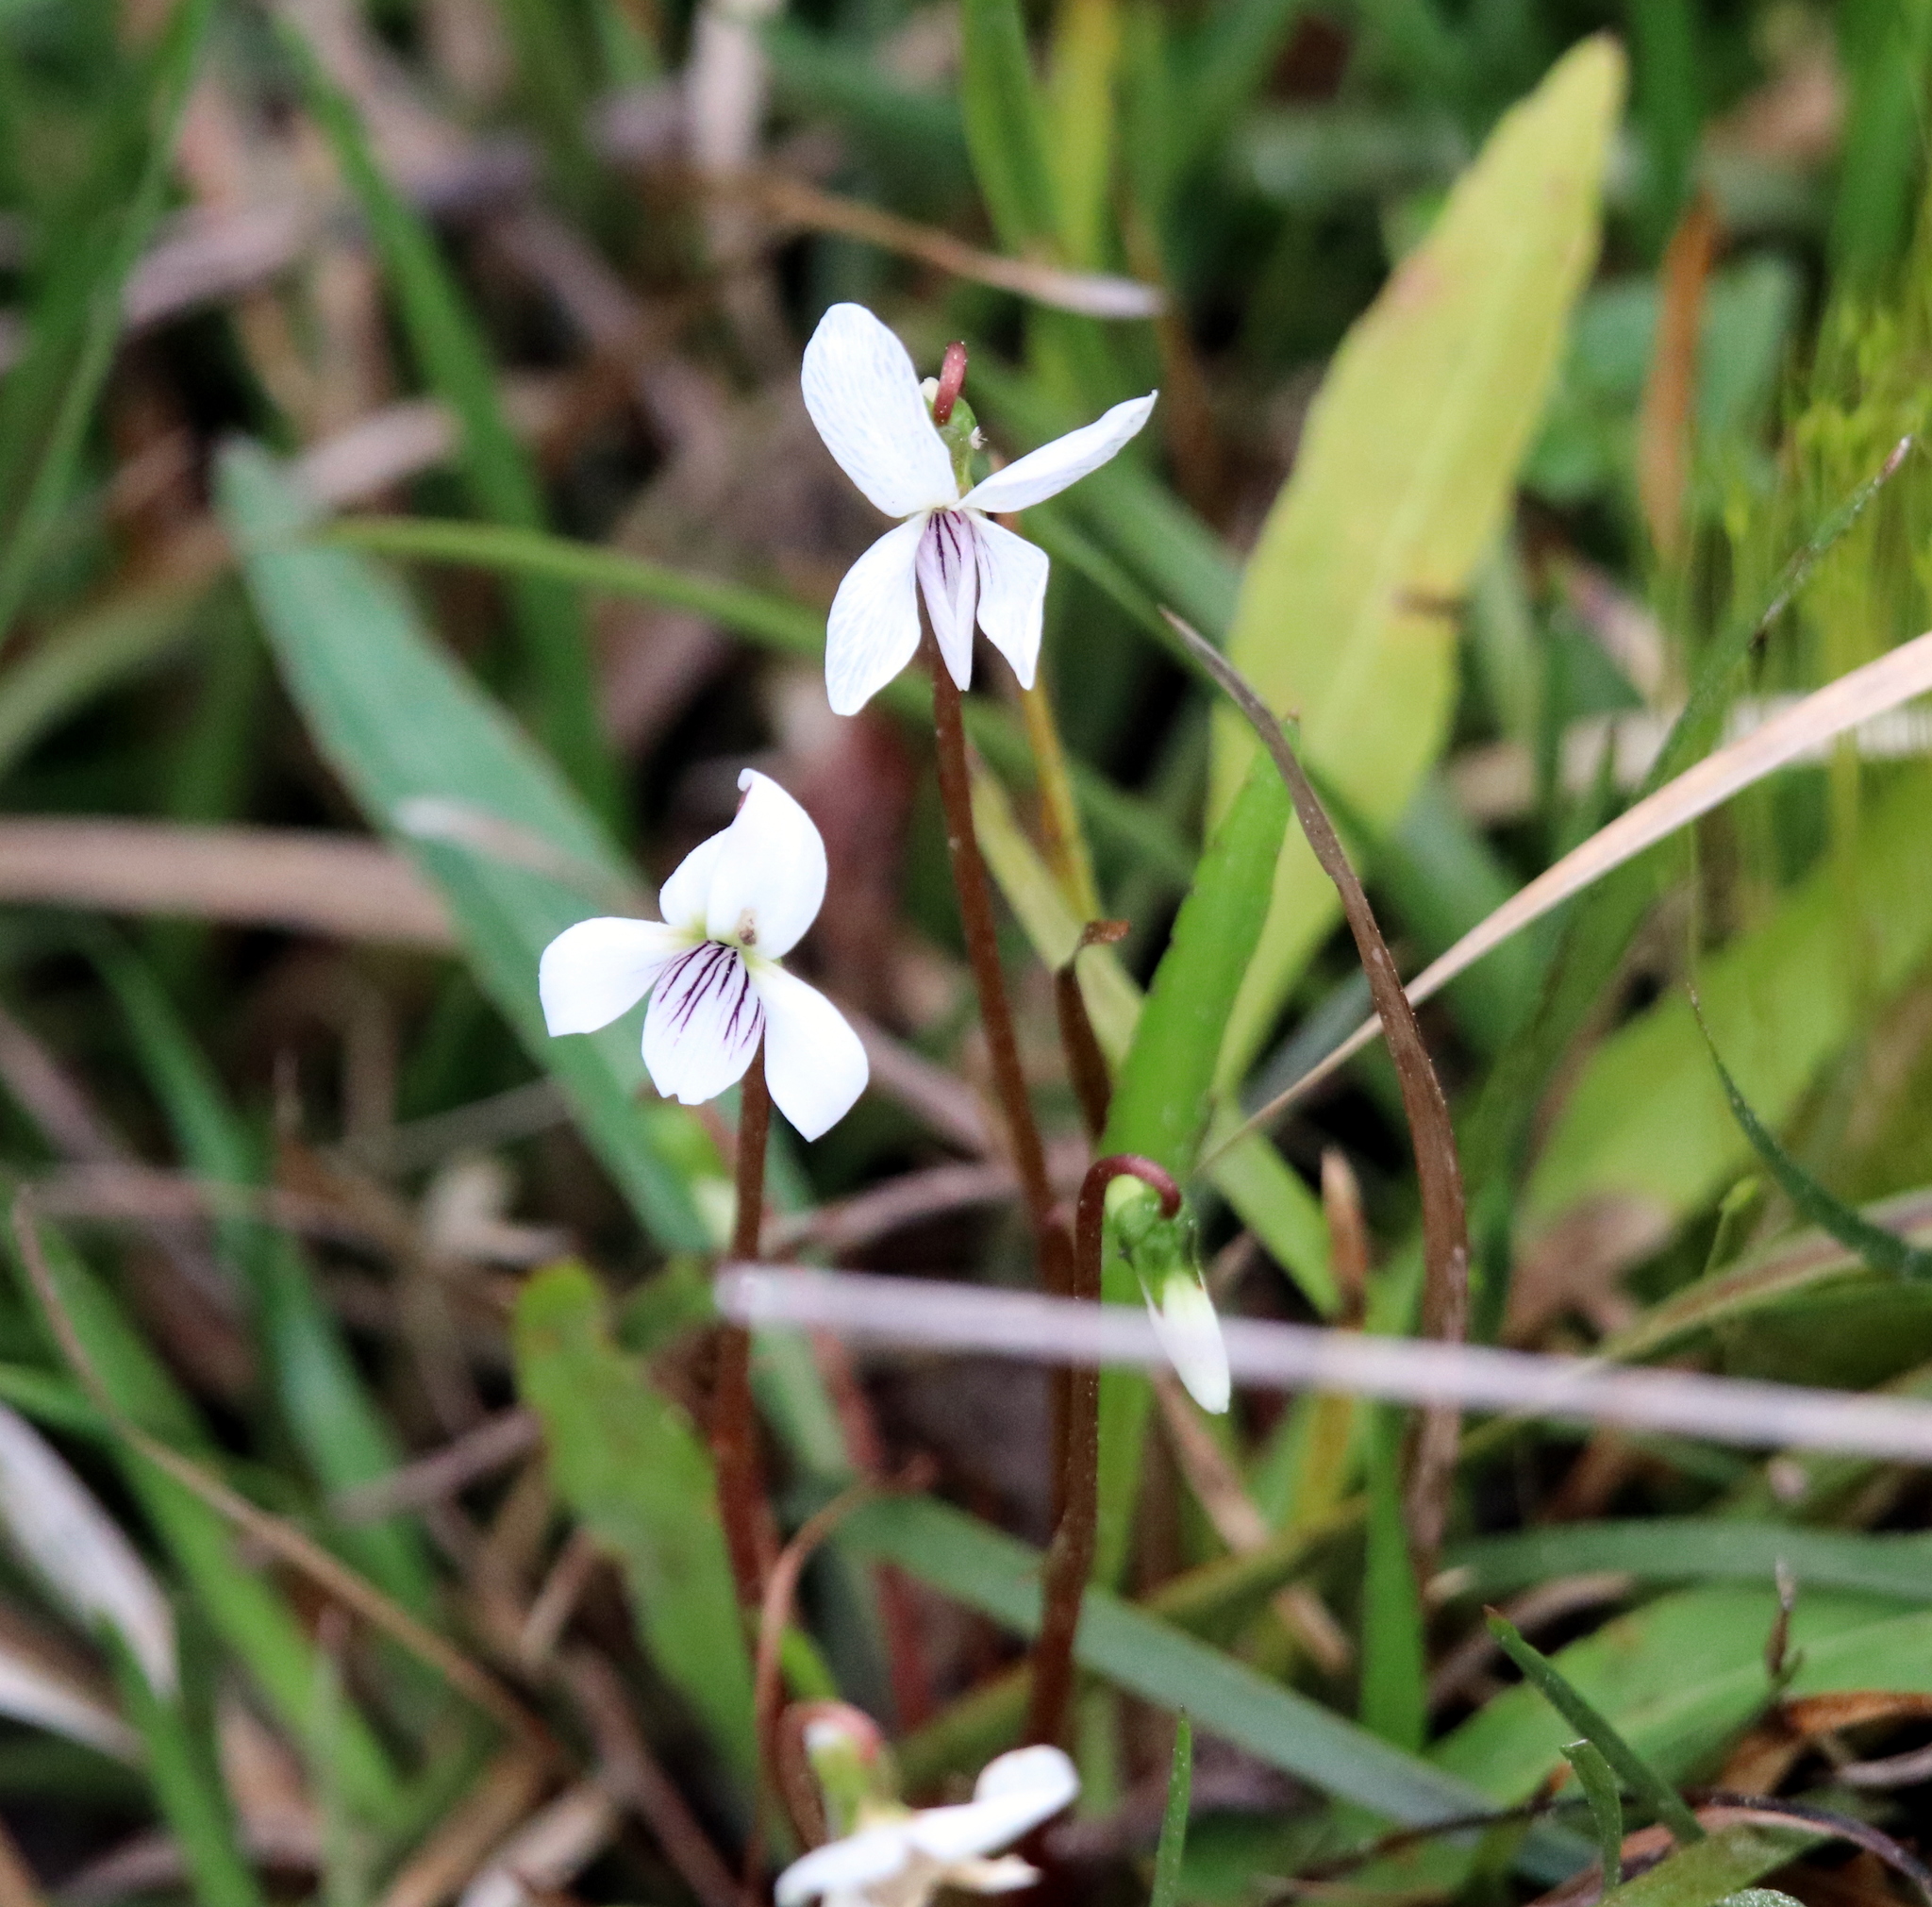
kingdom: Plantae
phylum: Tracheophyta
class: Magnoliopsida
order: Malpighiales
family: Violaceae
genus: Viola
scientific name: Viola lanceolata
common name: Bog white violet
